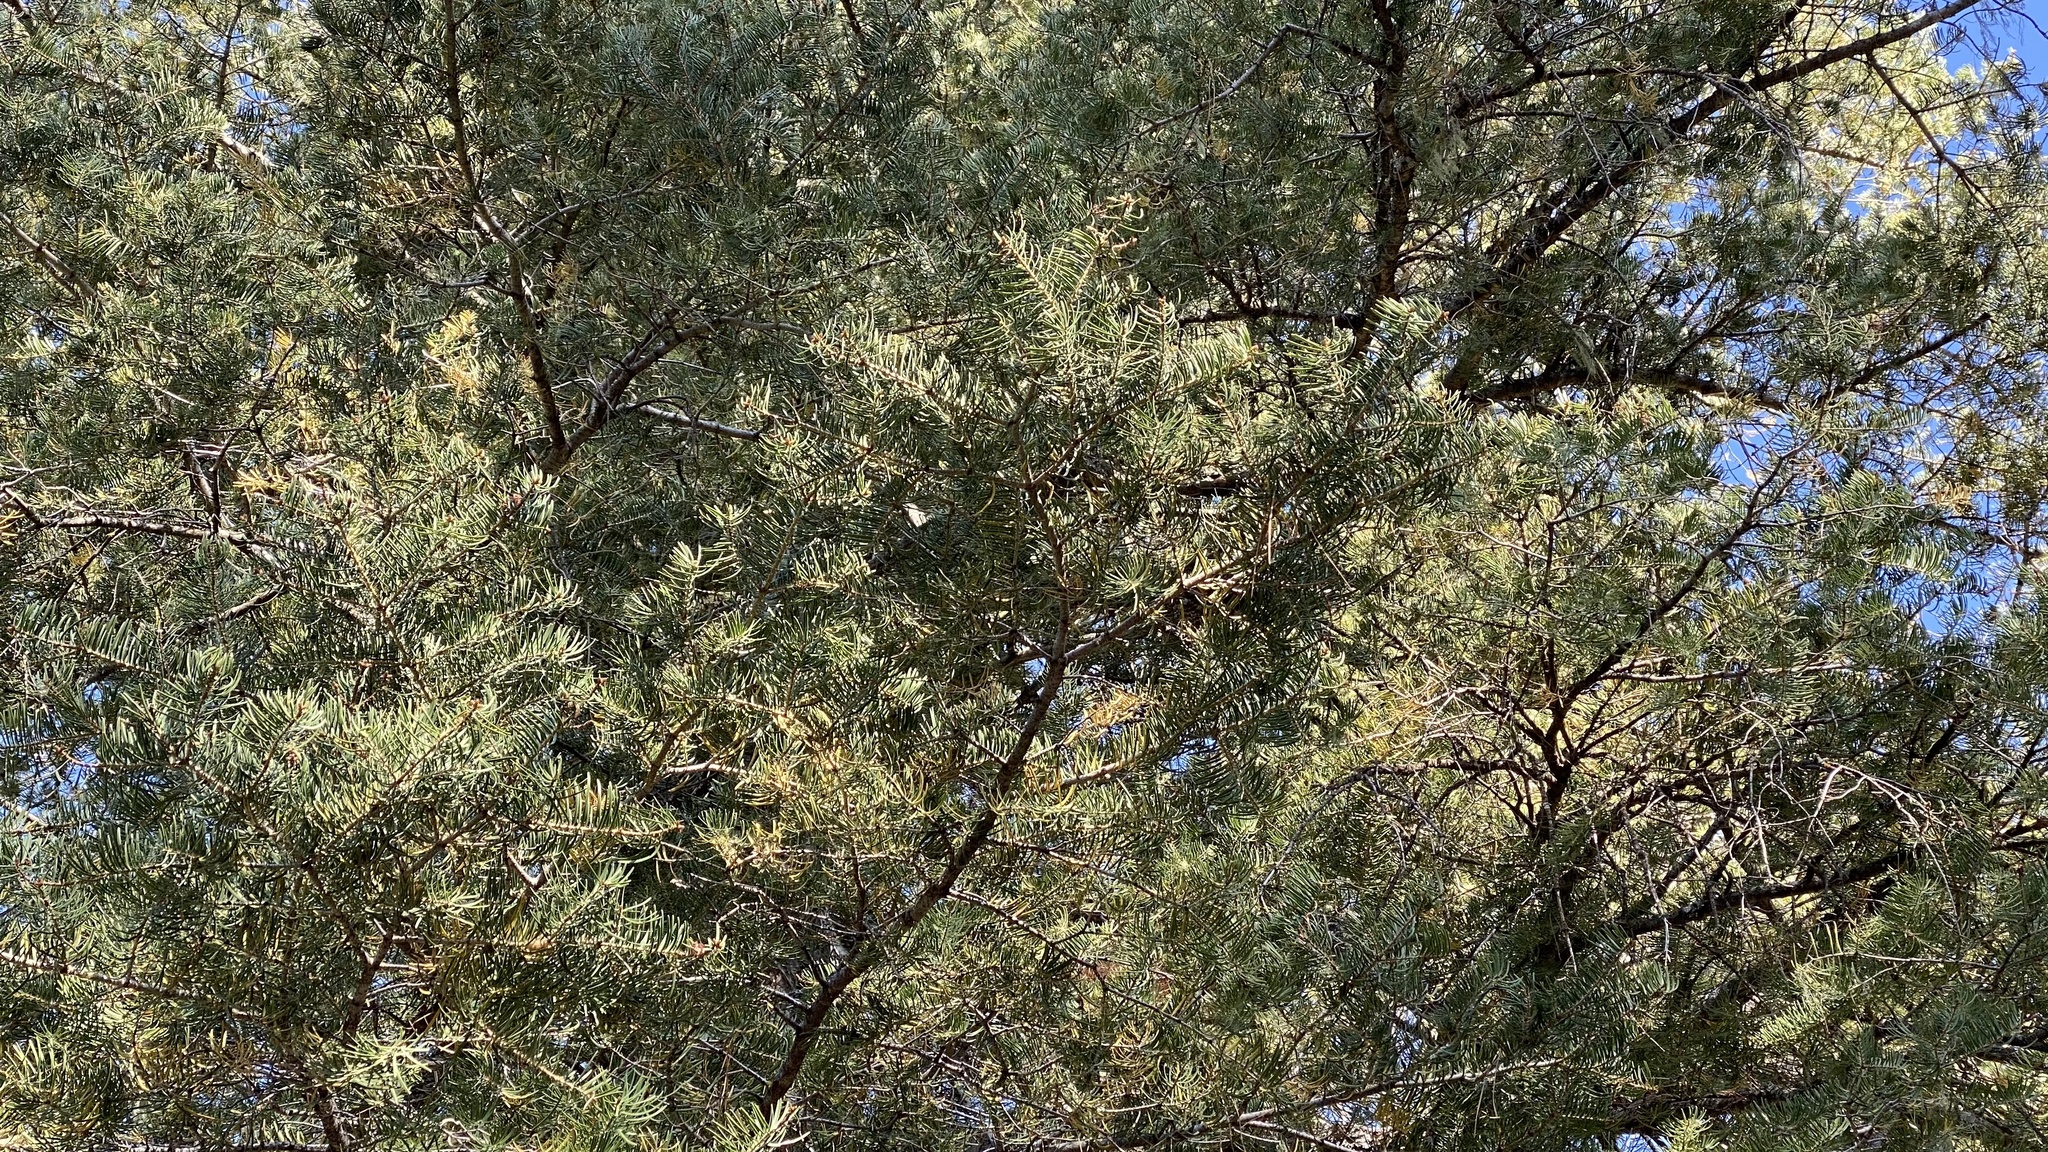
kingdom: Plantae
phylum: Tracheophyta
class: Pinopsida
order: Pinales
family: Pinaceae
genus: Abies
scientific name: Abies concolor
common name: Colorado fir
